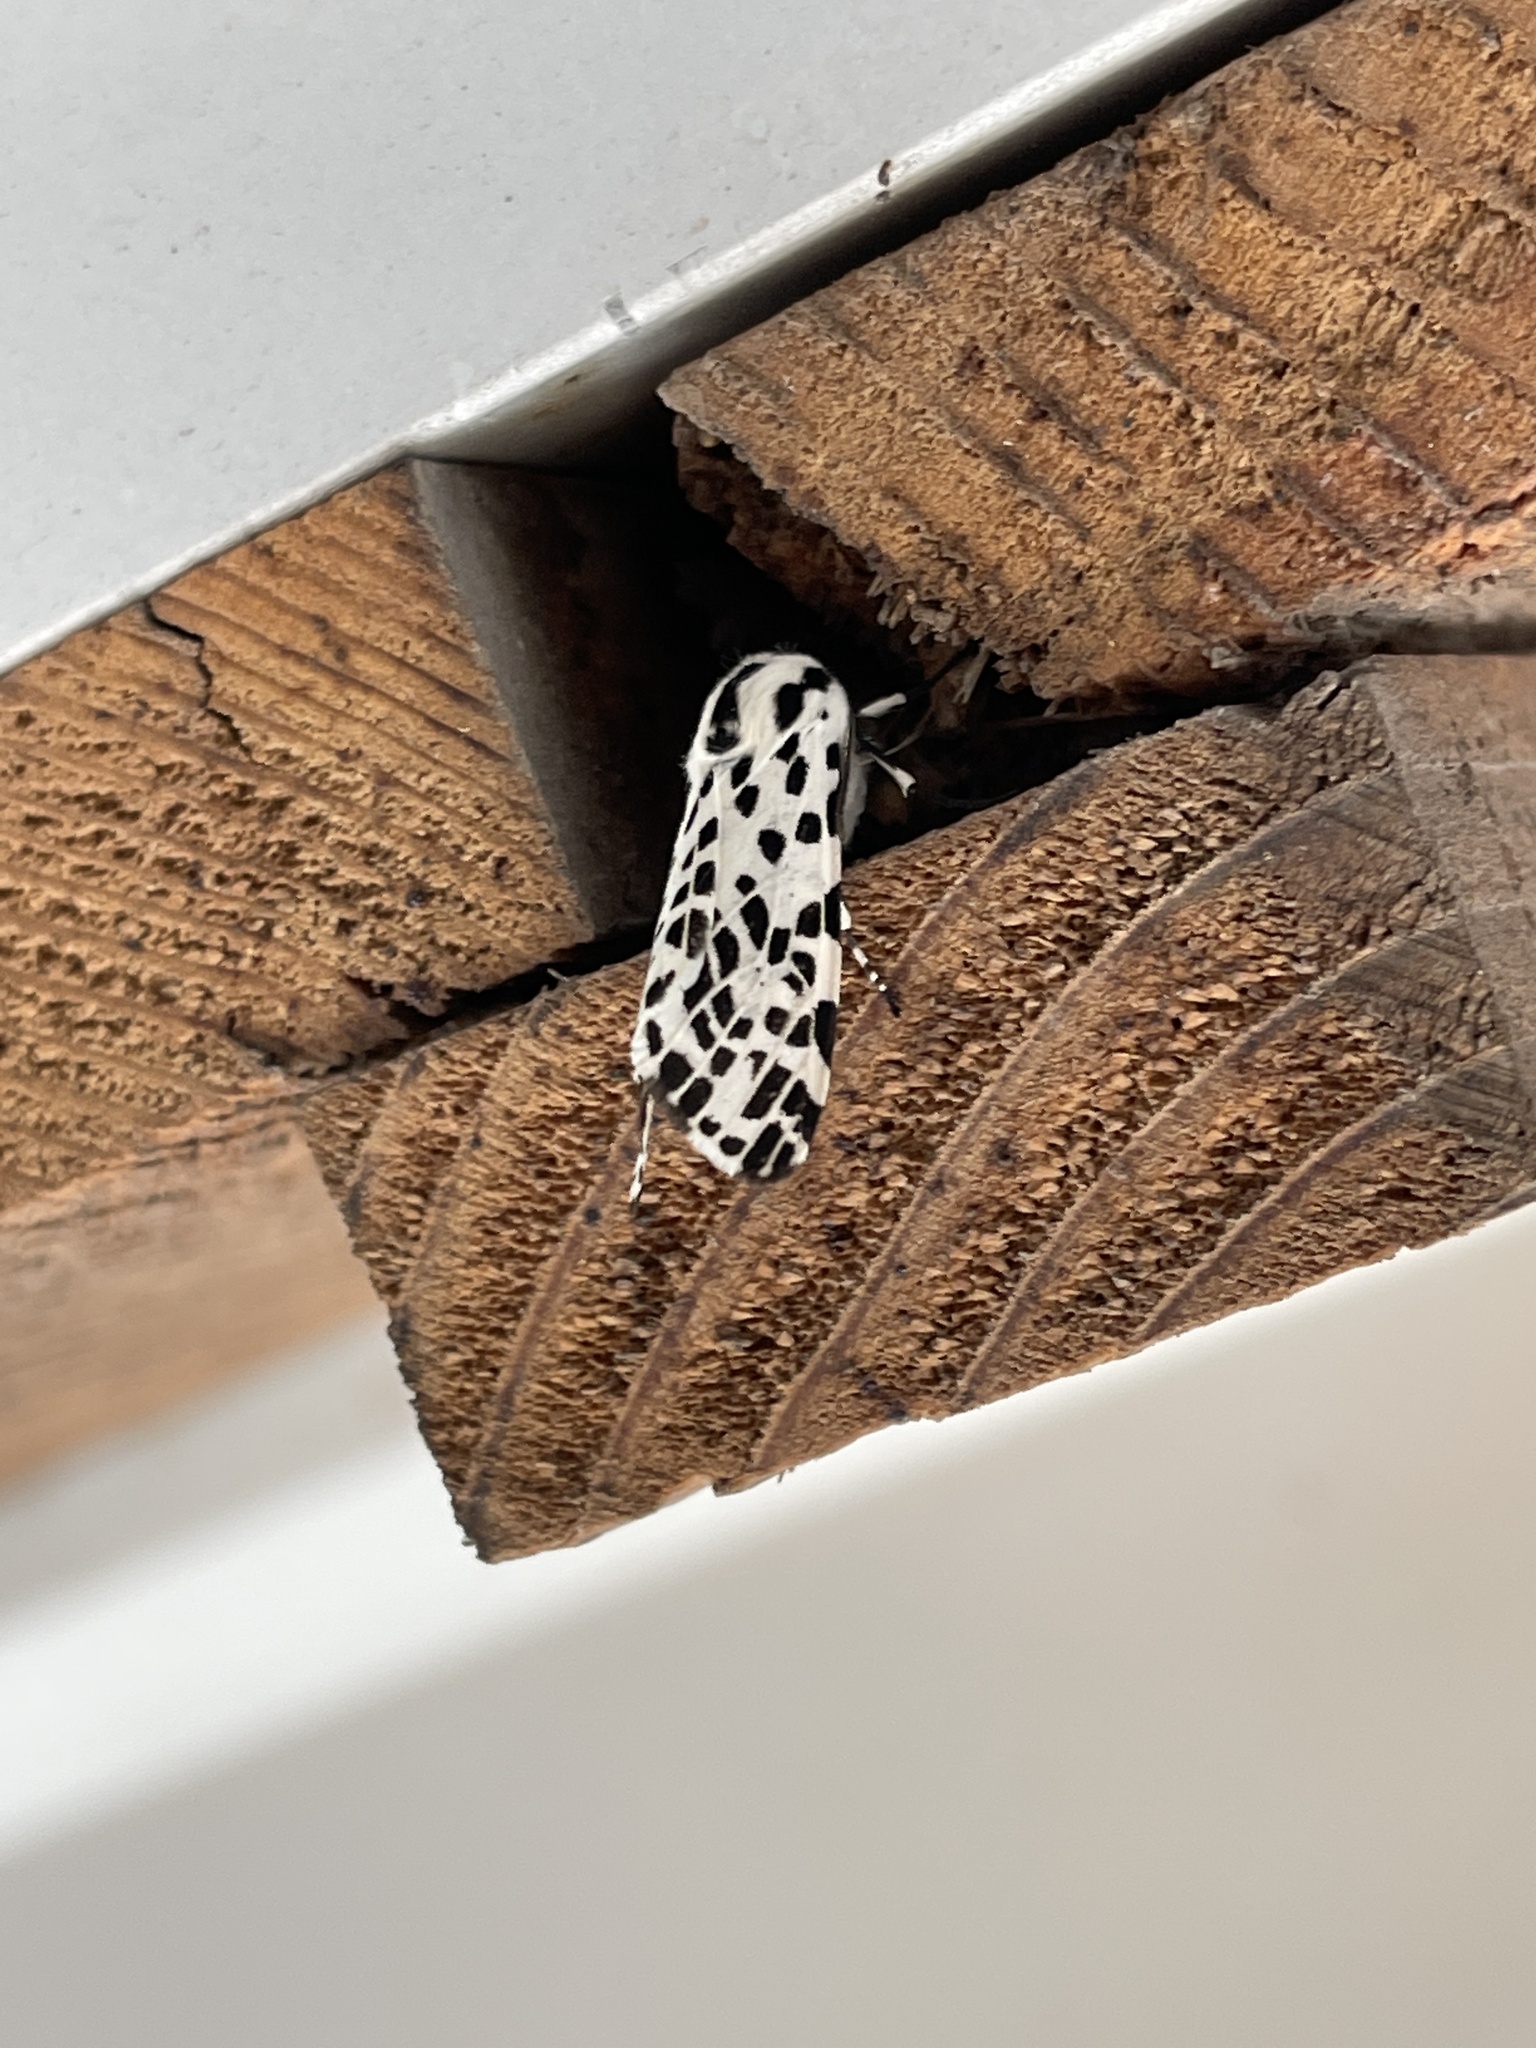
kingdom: Animalia
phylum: Arthropoda
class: Insecta
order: Lepidoptera
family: Erebidae
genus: Hypercompe
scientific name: Hypercompe permaculata
